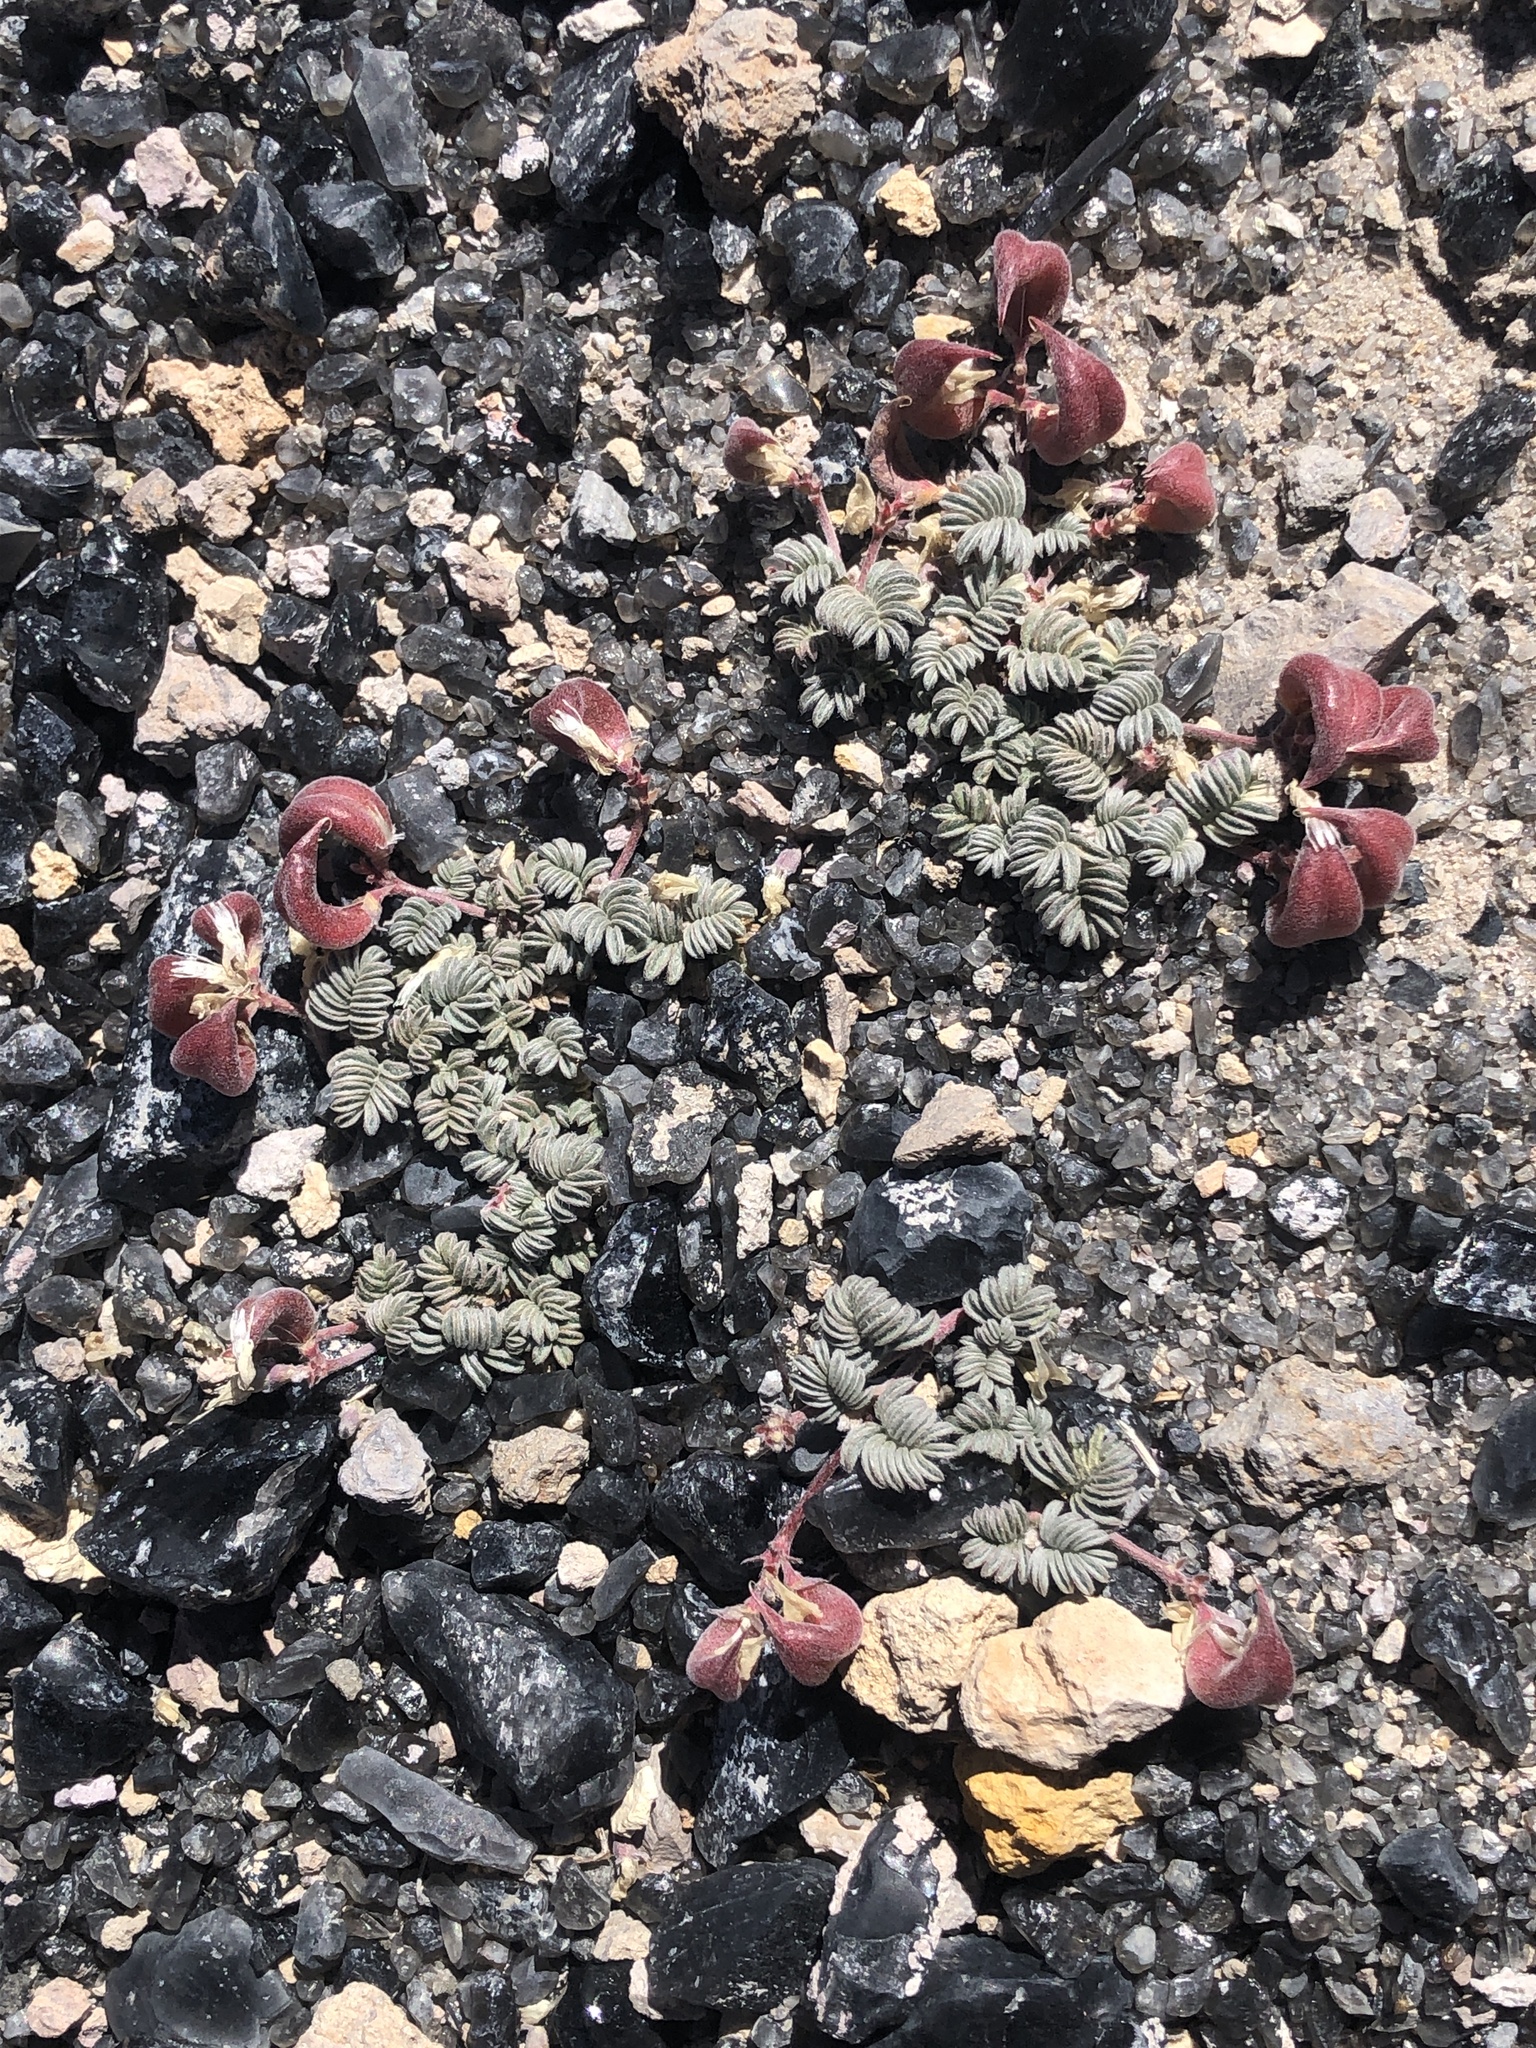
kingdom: Plantae
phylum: Tracheophyta
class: Magnoliopsida
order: Fabales
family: Fabaceae
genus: Astragalus
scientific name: Astragalus monoensis
